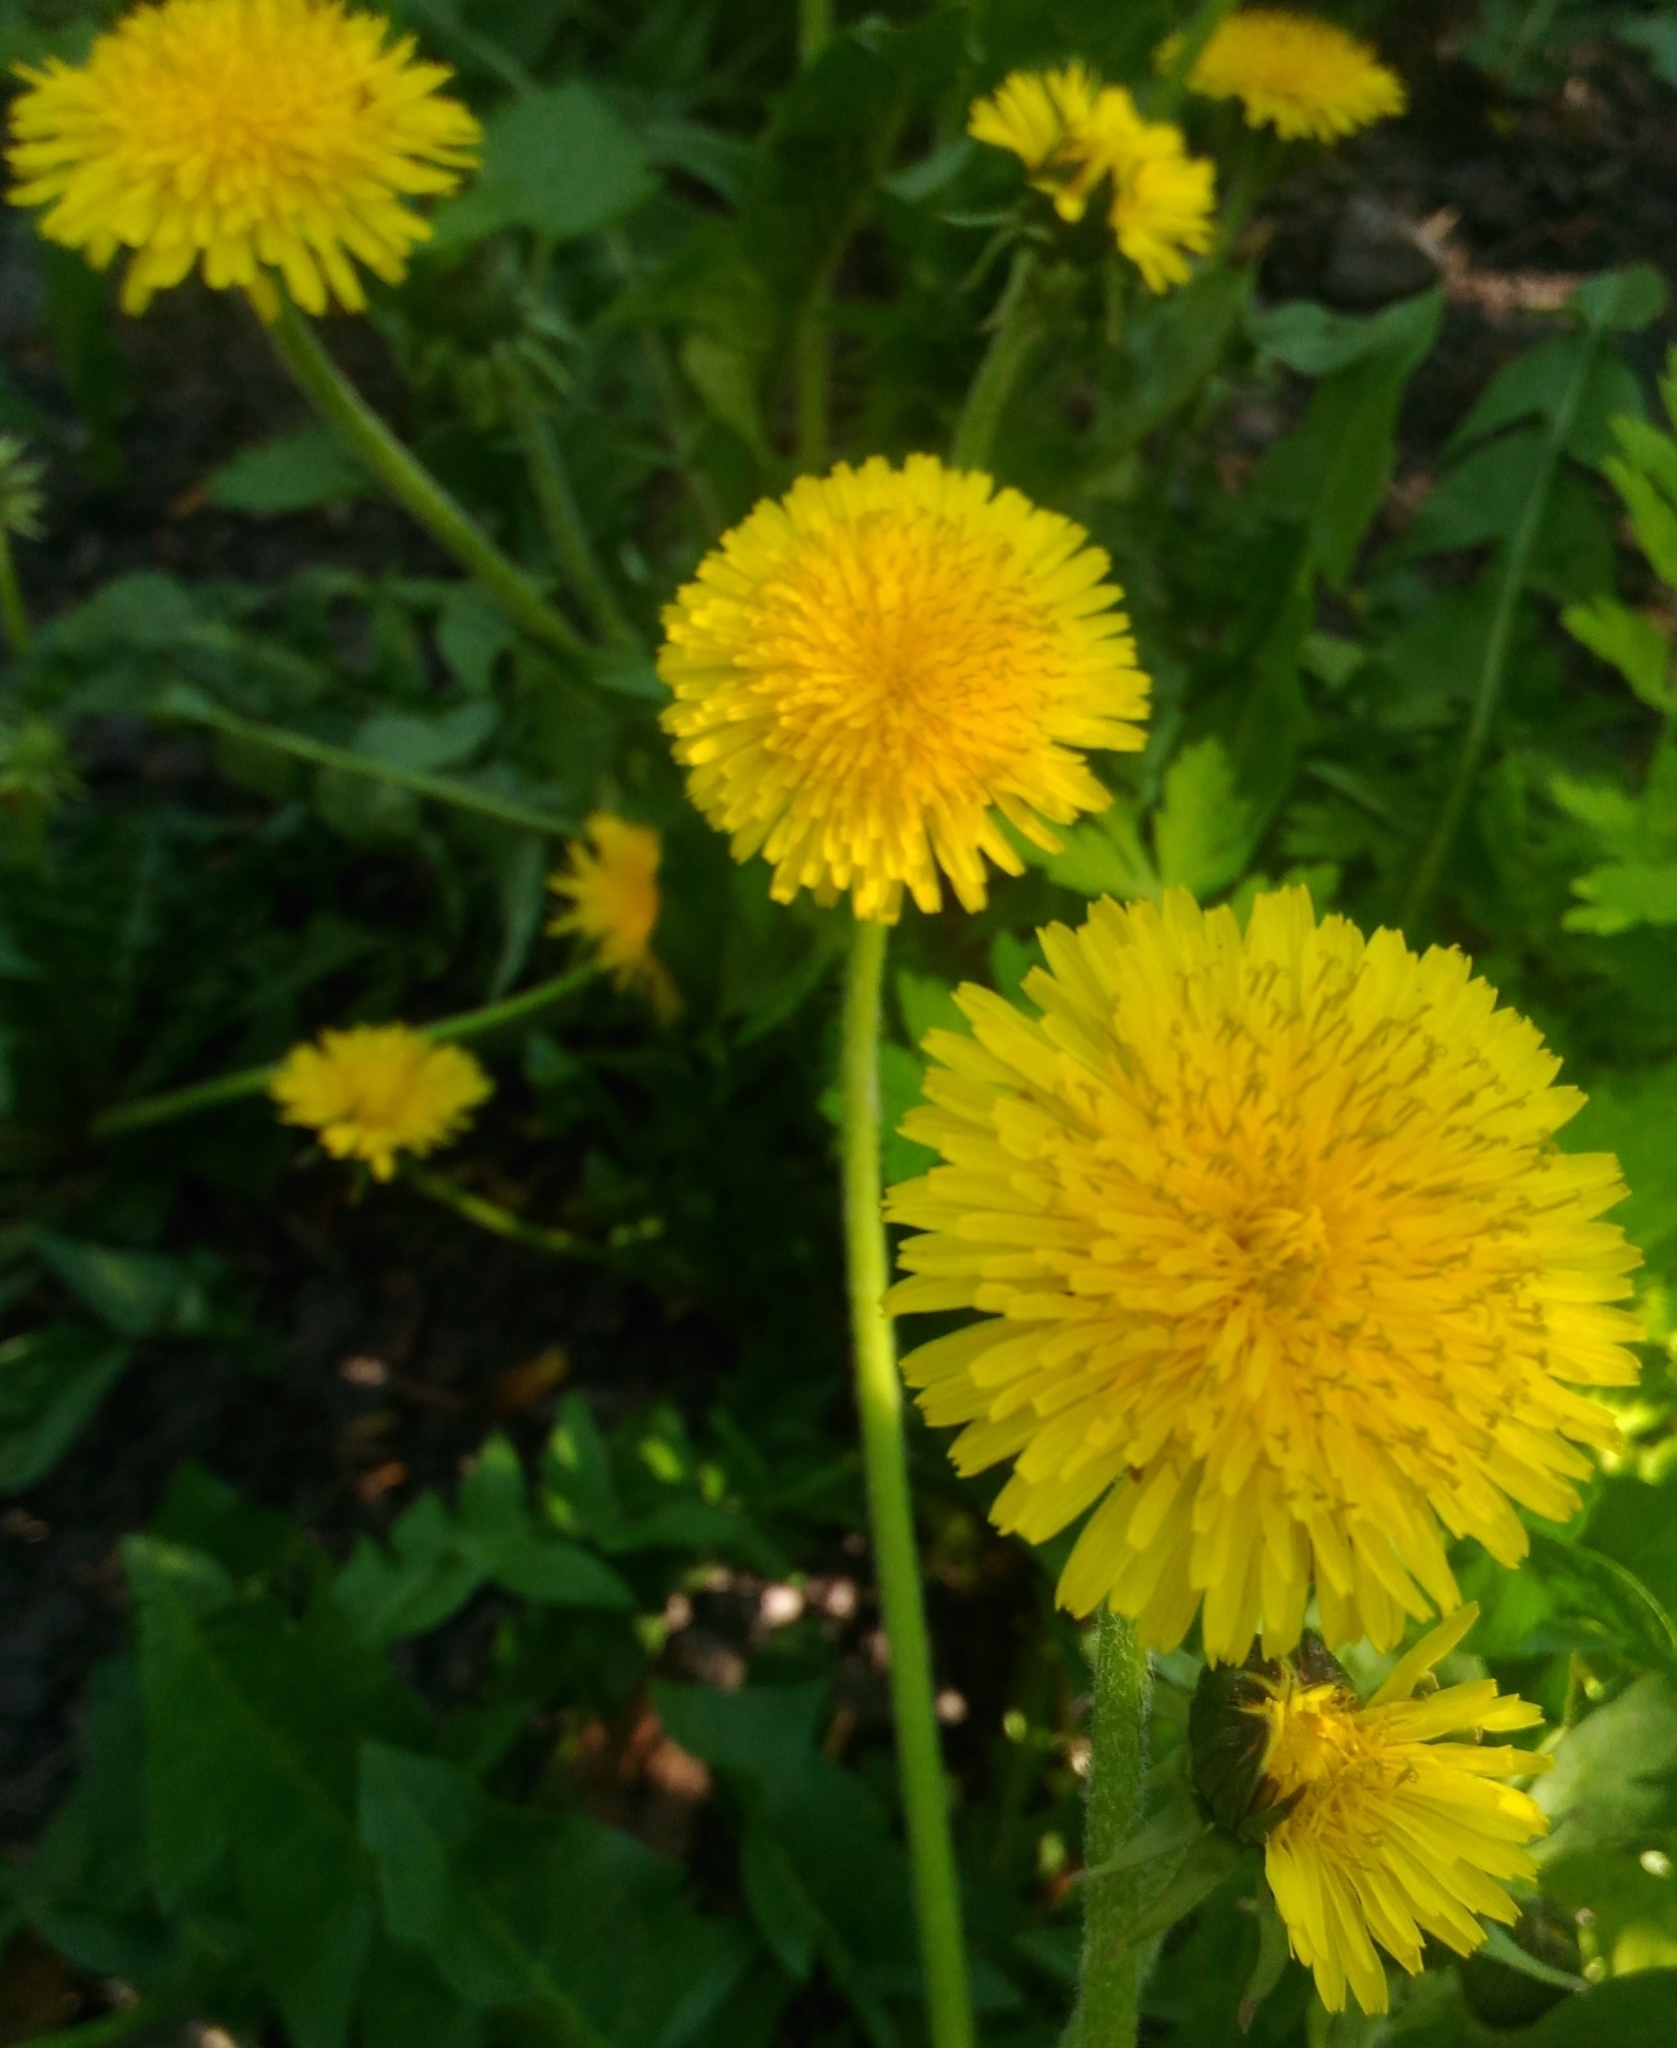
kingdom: Plantae
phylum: Tracheophyta
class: Magnoliopsida
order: Asterales
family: Asteraceae
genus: Taraxacum
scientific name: Taraxacum officinale
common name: Common dandelion
